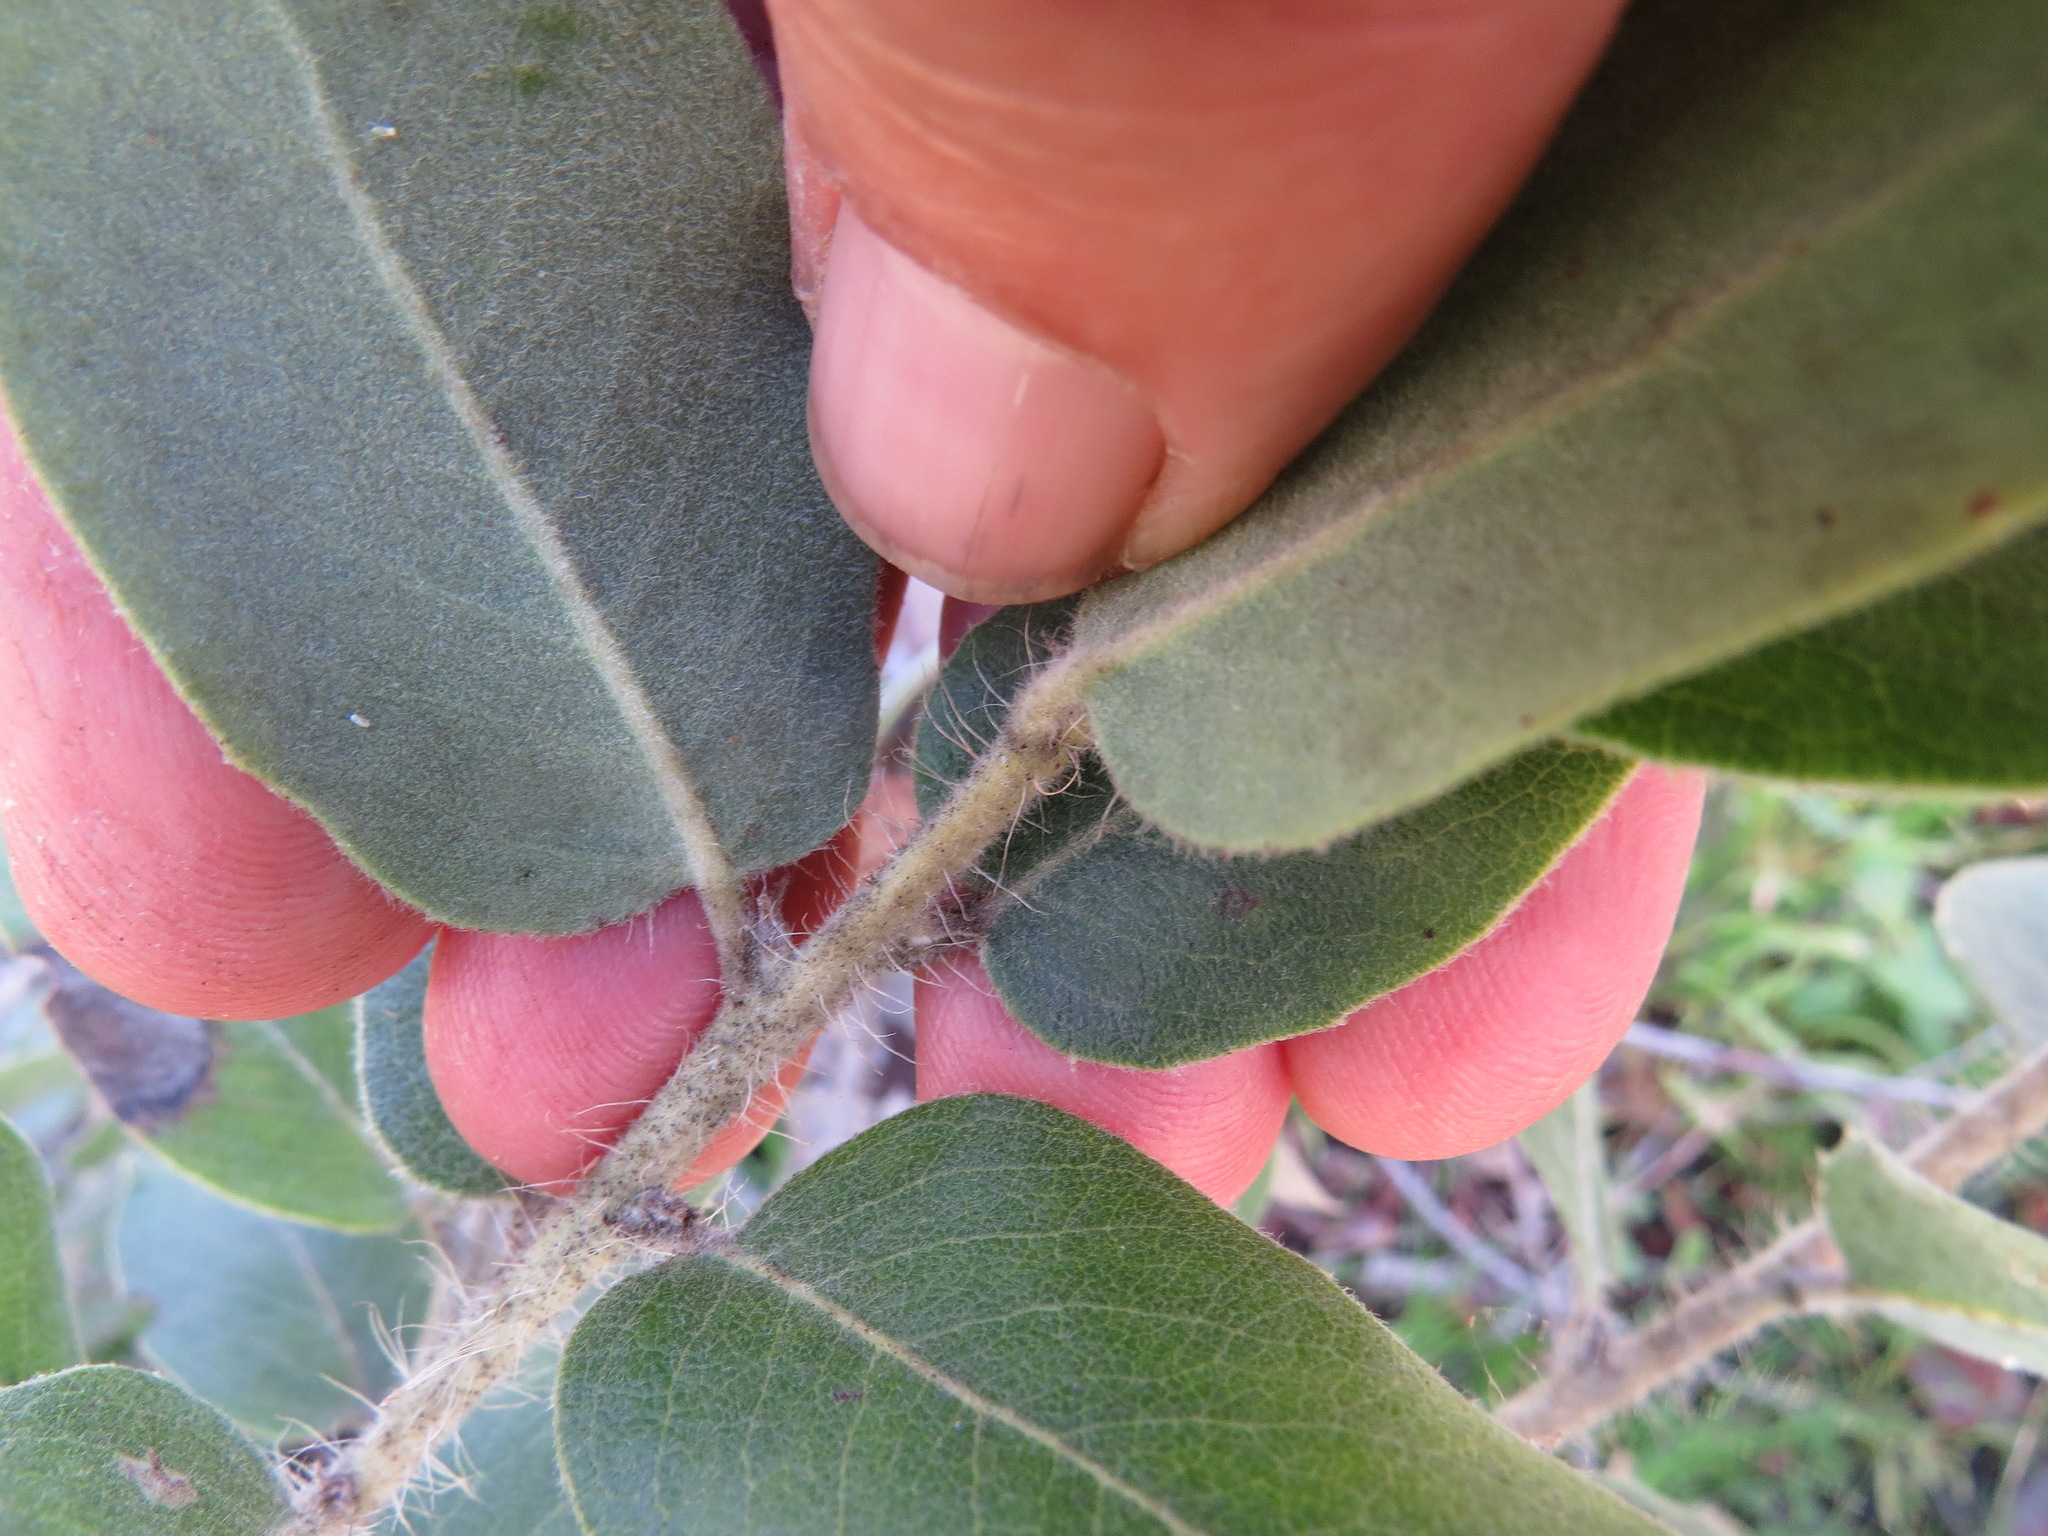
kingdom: Plantae
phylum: Tracheophyta
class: Magnoliopsida
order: Ericales
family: Ericaceae
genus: Arctostaphylos
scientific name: Arctostaphylos crustacea
